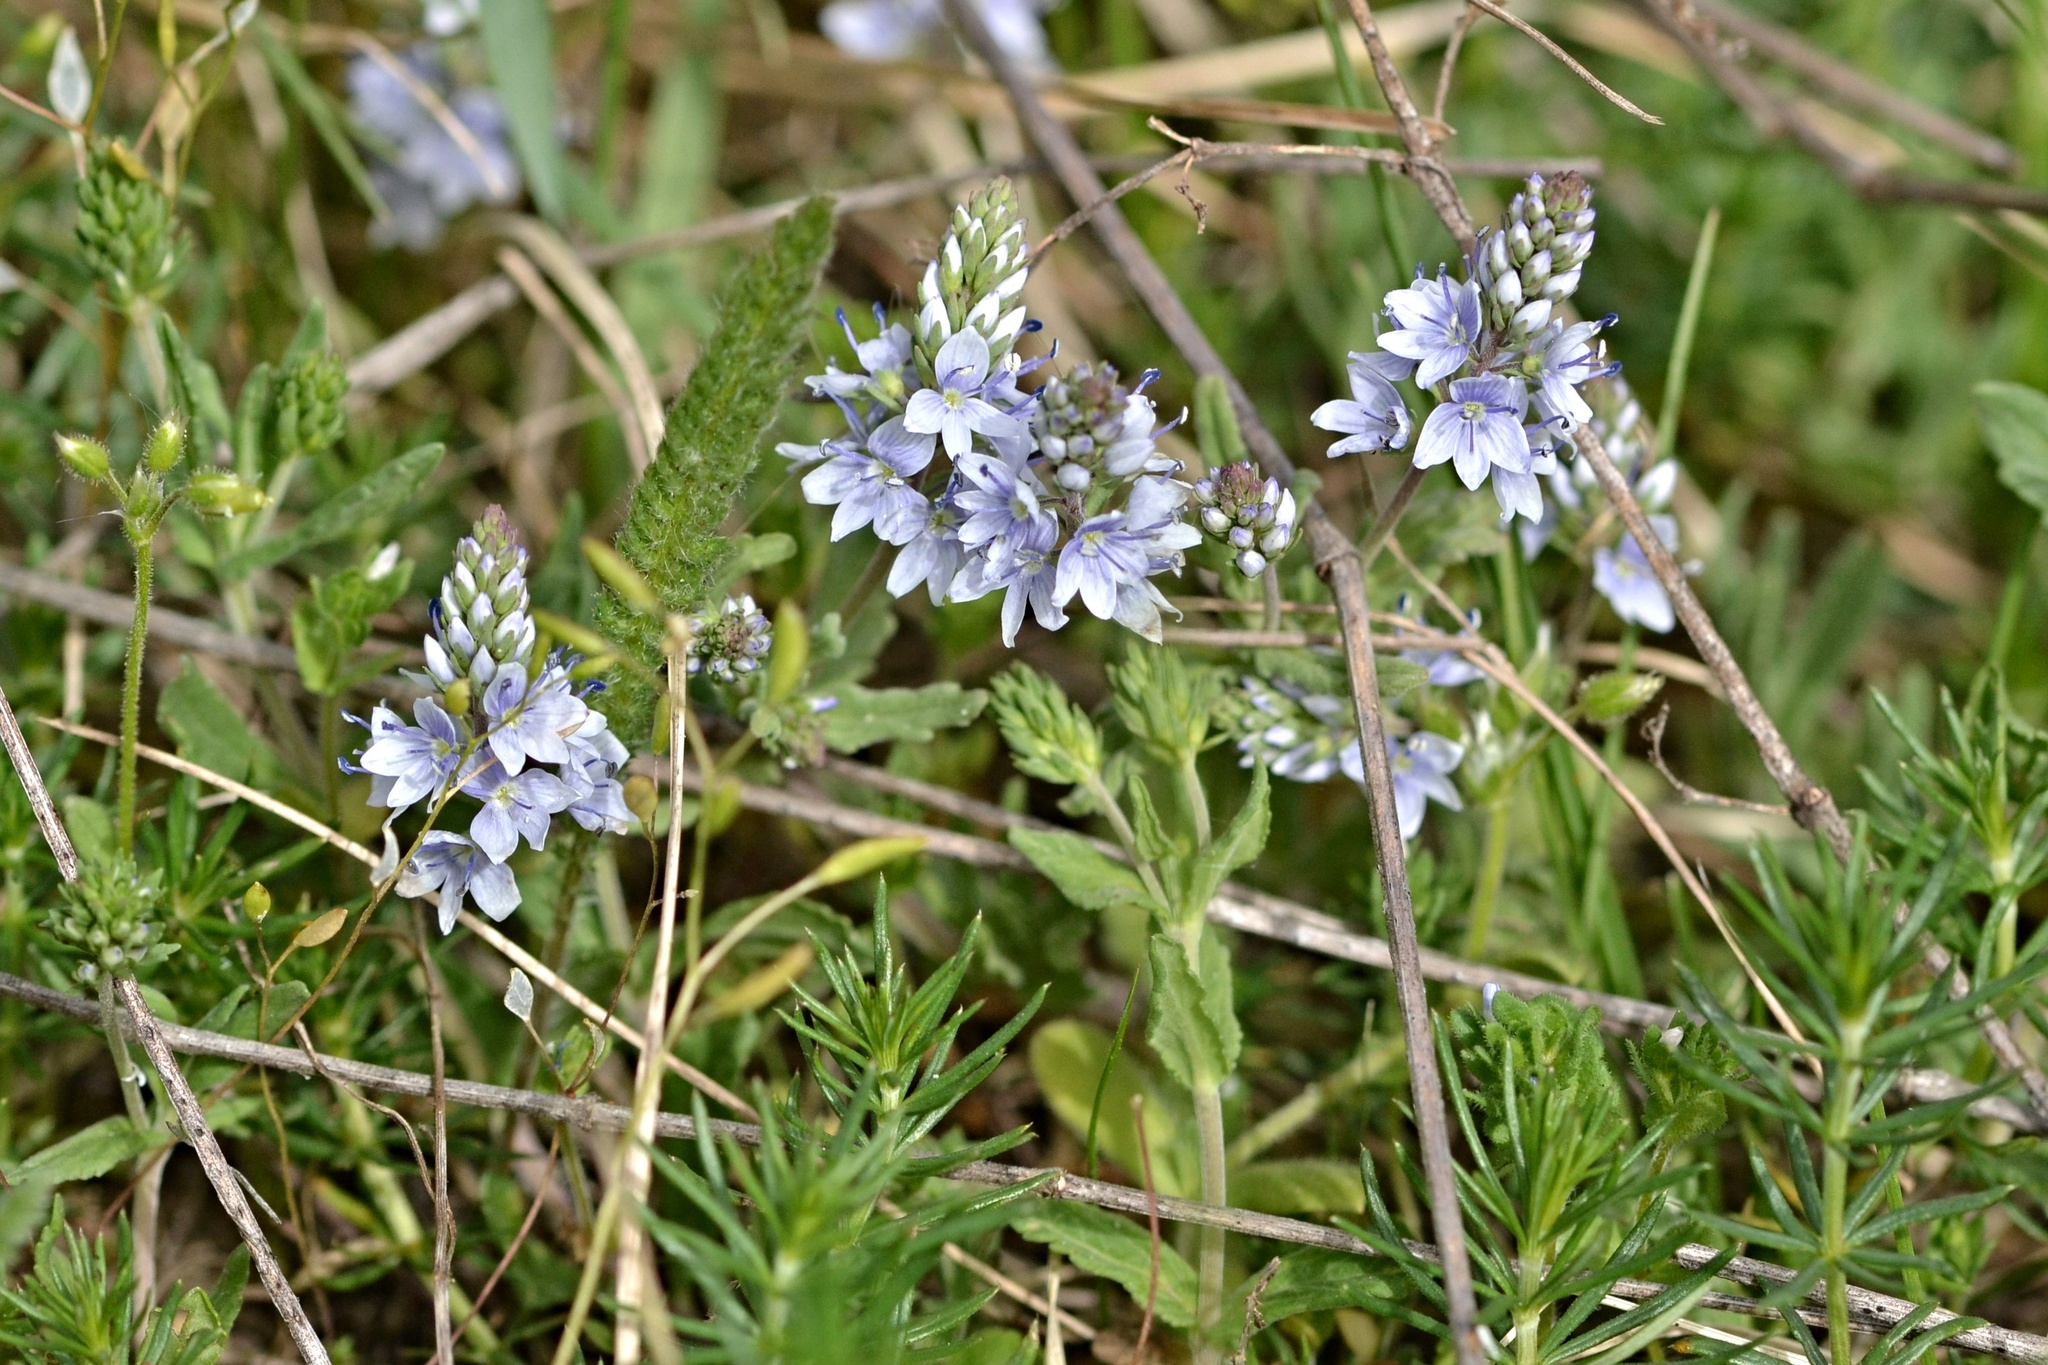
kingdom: Plantae
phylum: Tracheophyta
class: Magnoliopsida
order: Lamiales
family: Plantaginaceae
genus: Veronica
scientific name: Veronica prostrata
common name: Prostrate speedwell
